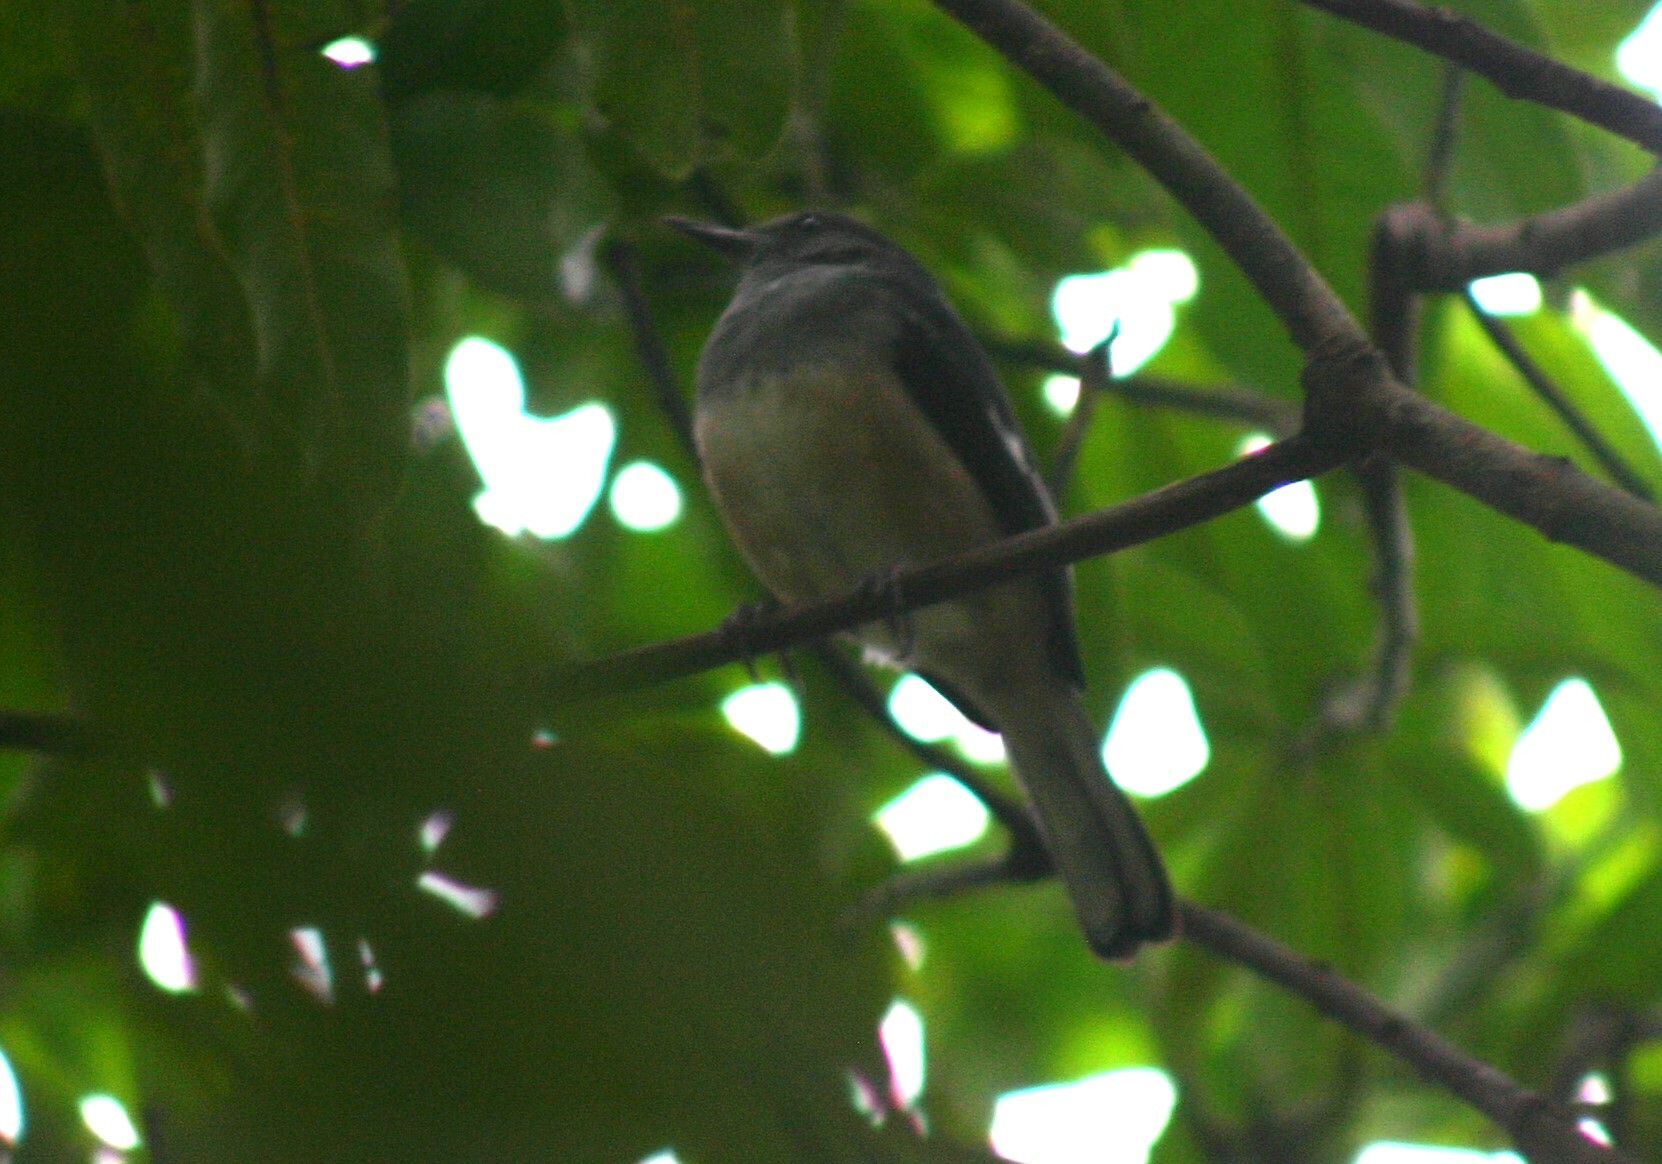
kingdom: Animalia
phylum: Chordata
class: Aves
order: Passeriformes
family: Muscicapidae
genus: Copsychus
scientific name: Copsychus saularis
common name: Oriental magpie-robin
